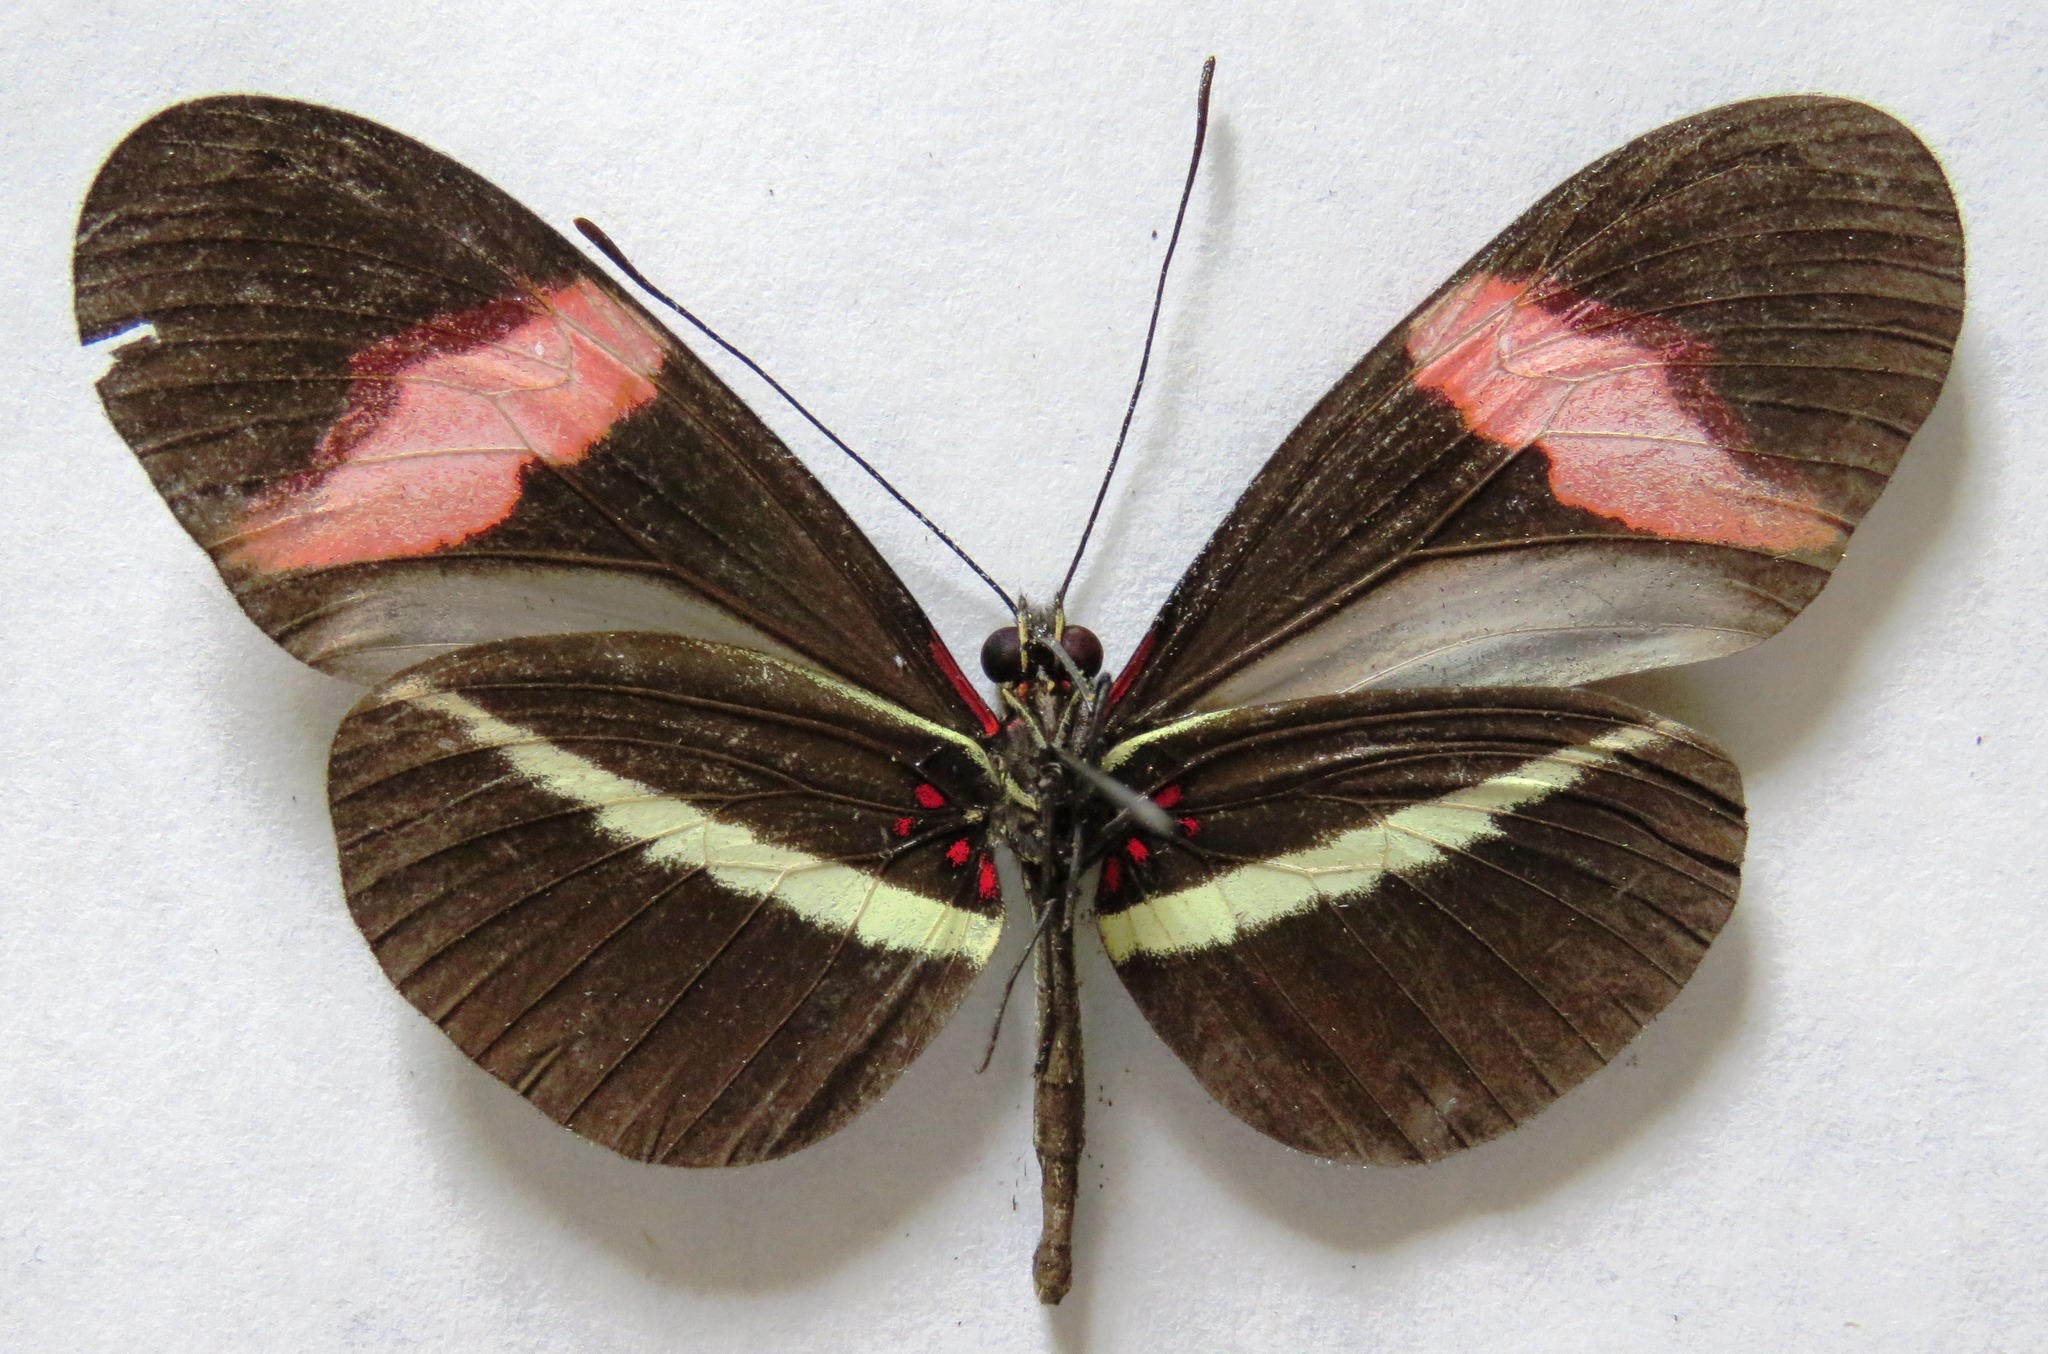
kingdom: Animalia
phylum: Arthropoda
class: Insecta
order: Lepidoptera
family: Nymphalidae
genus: Tirumala
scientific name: Tirumala petiverana
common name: Blue monarch
